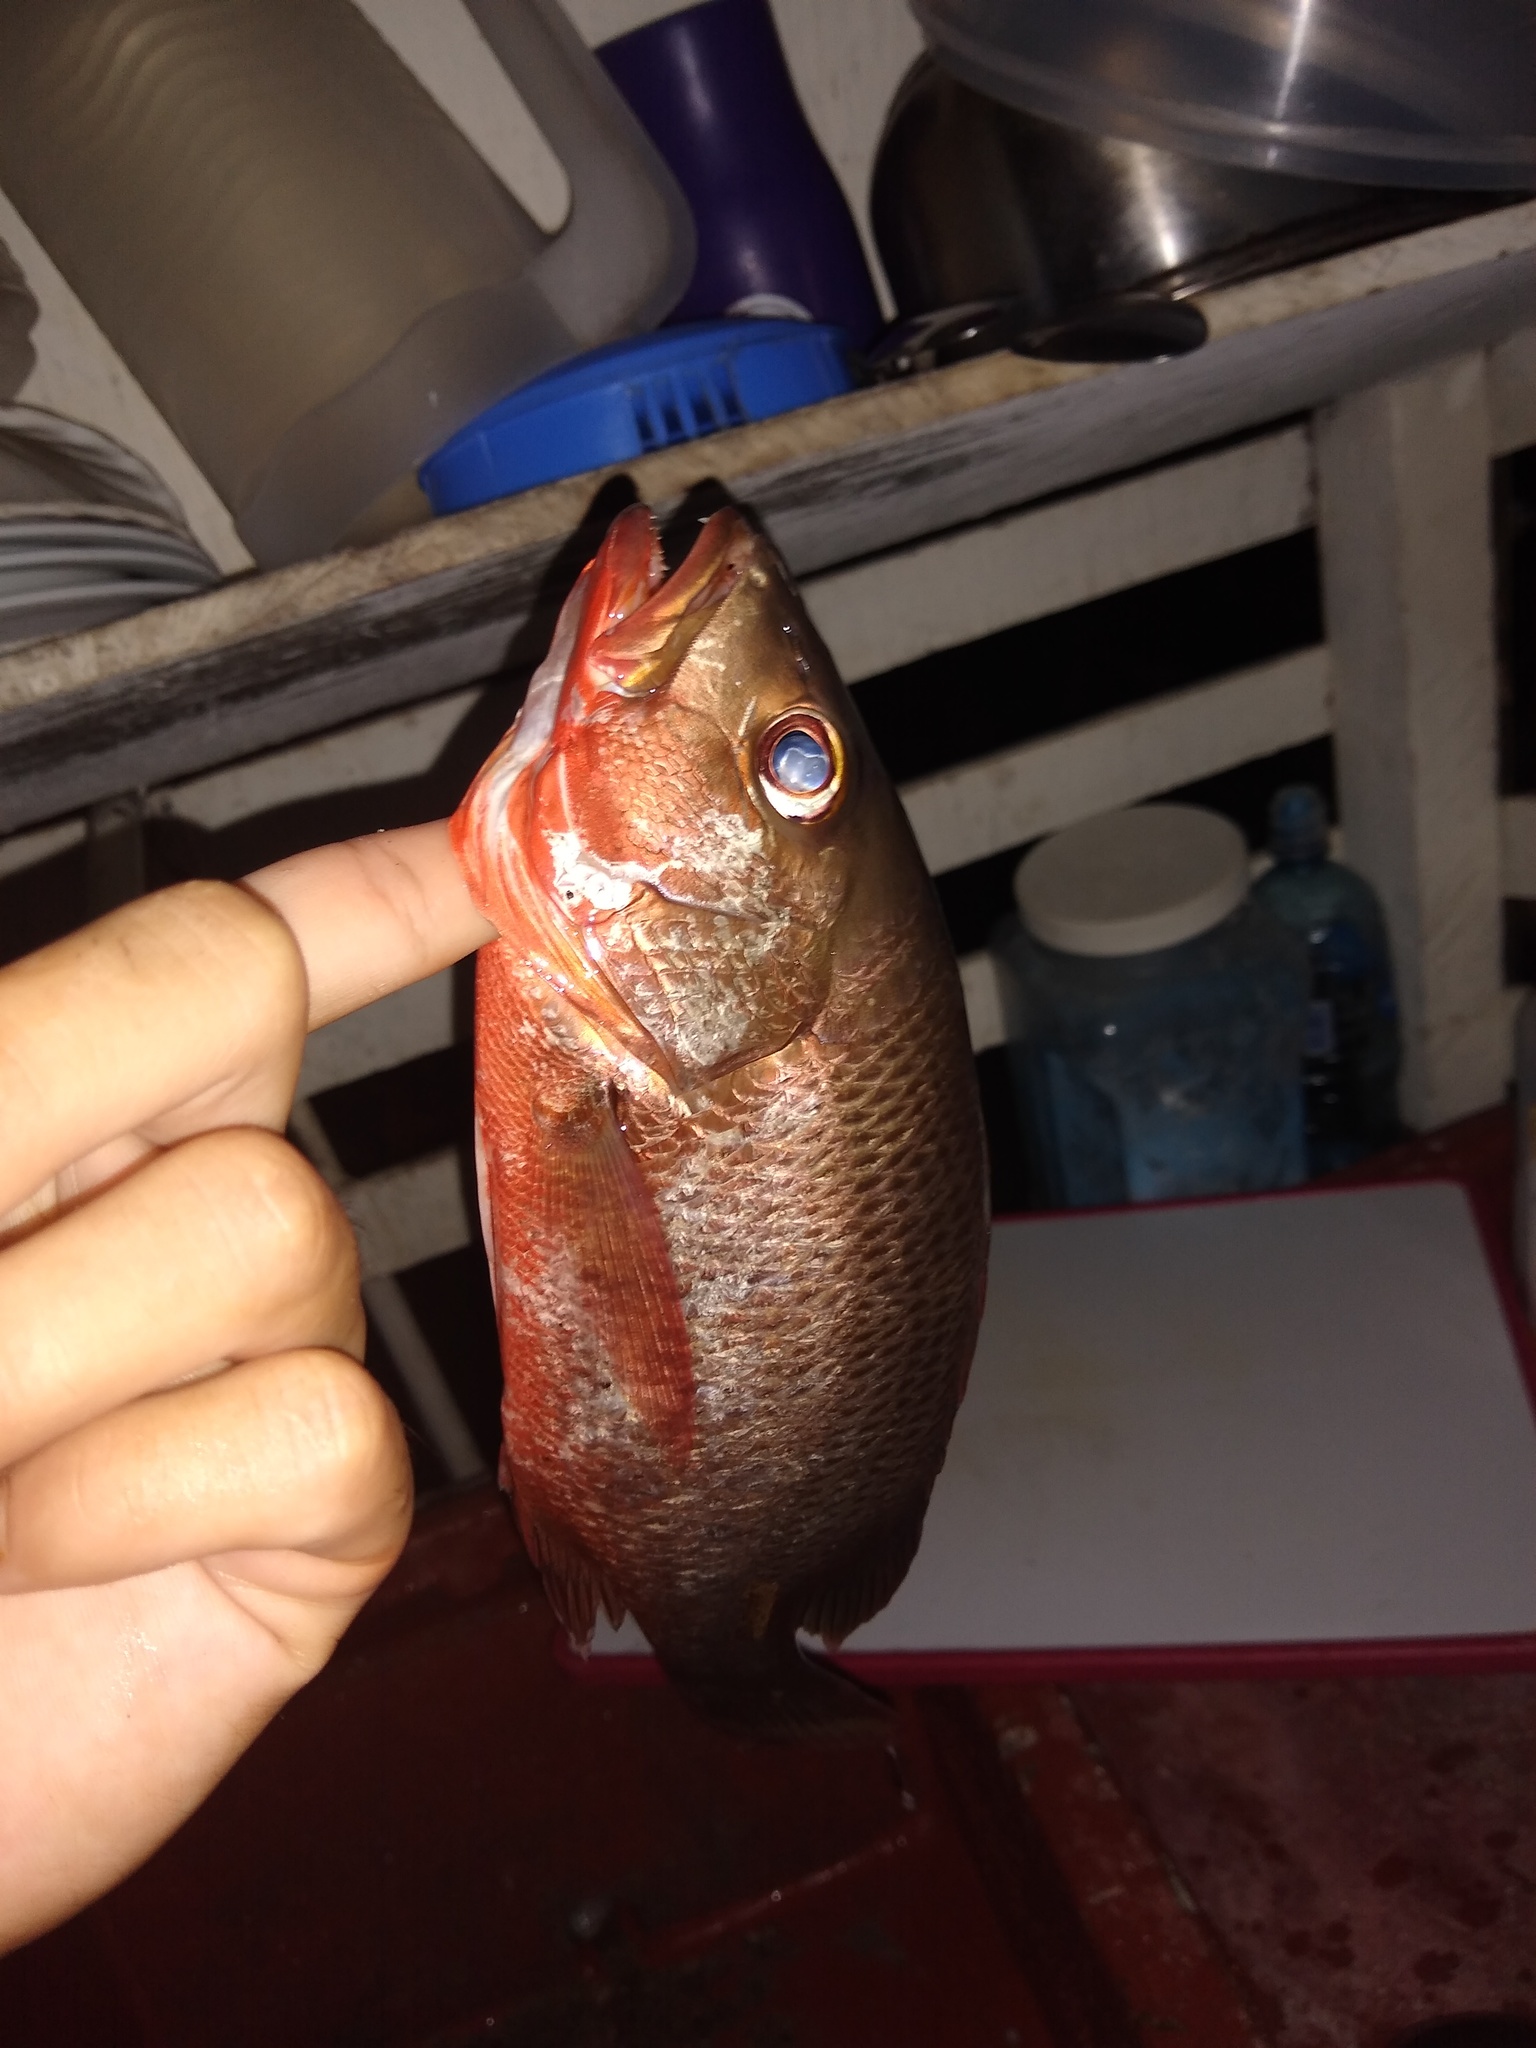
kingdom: Animalia
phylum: Chordata
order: Perciformes
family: Lutjanidae
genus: Lutjanus
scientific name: Lutjanus colorado
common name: Colorado snapper
